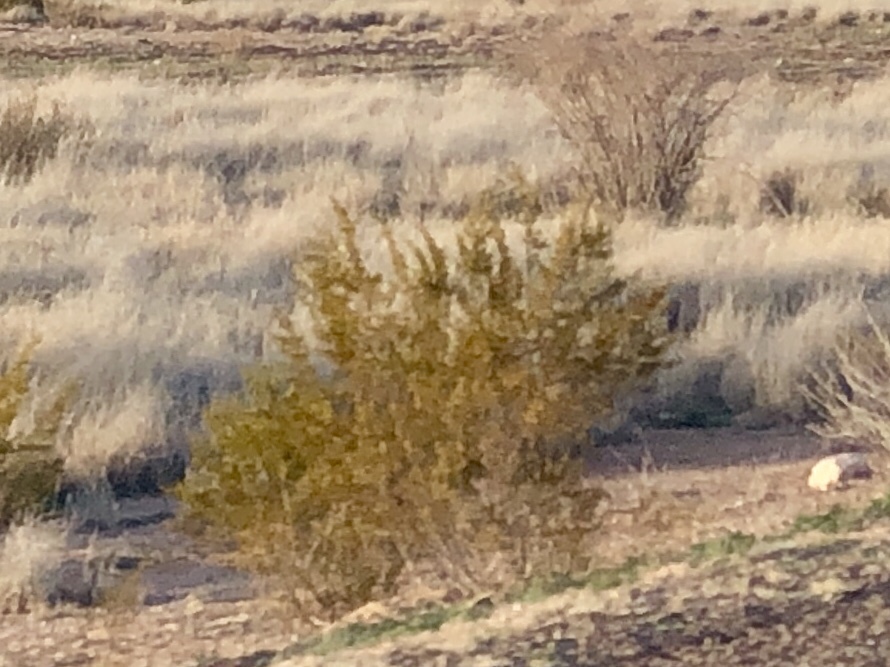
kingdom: Plantae
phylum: Tracheophyta
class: Magnoliopsida
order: Zygophyllales
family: Zygophyllaceae
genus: Larrea
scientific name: Larrea tridentata
